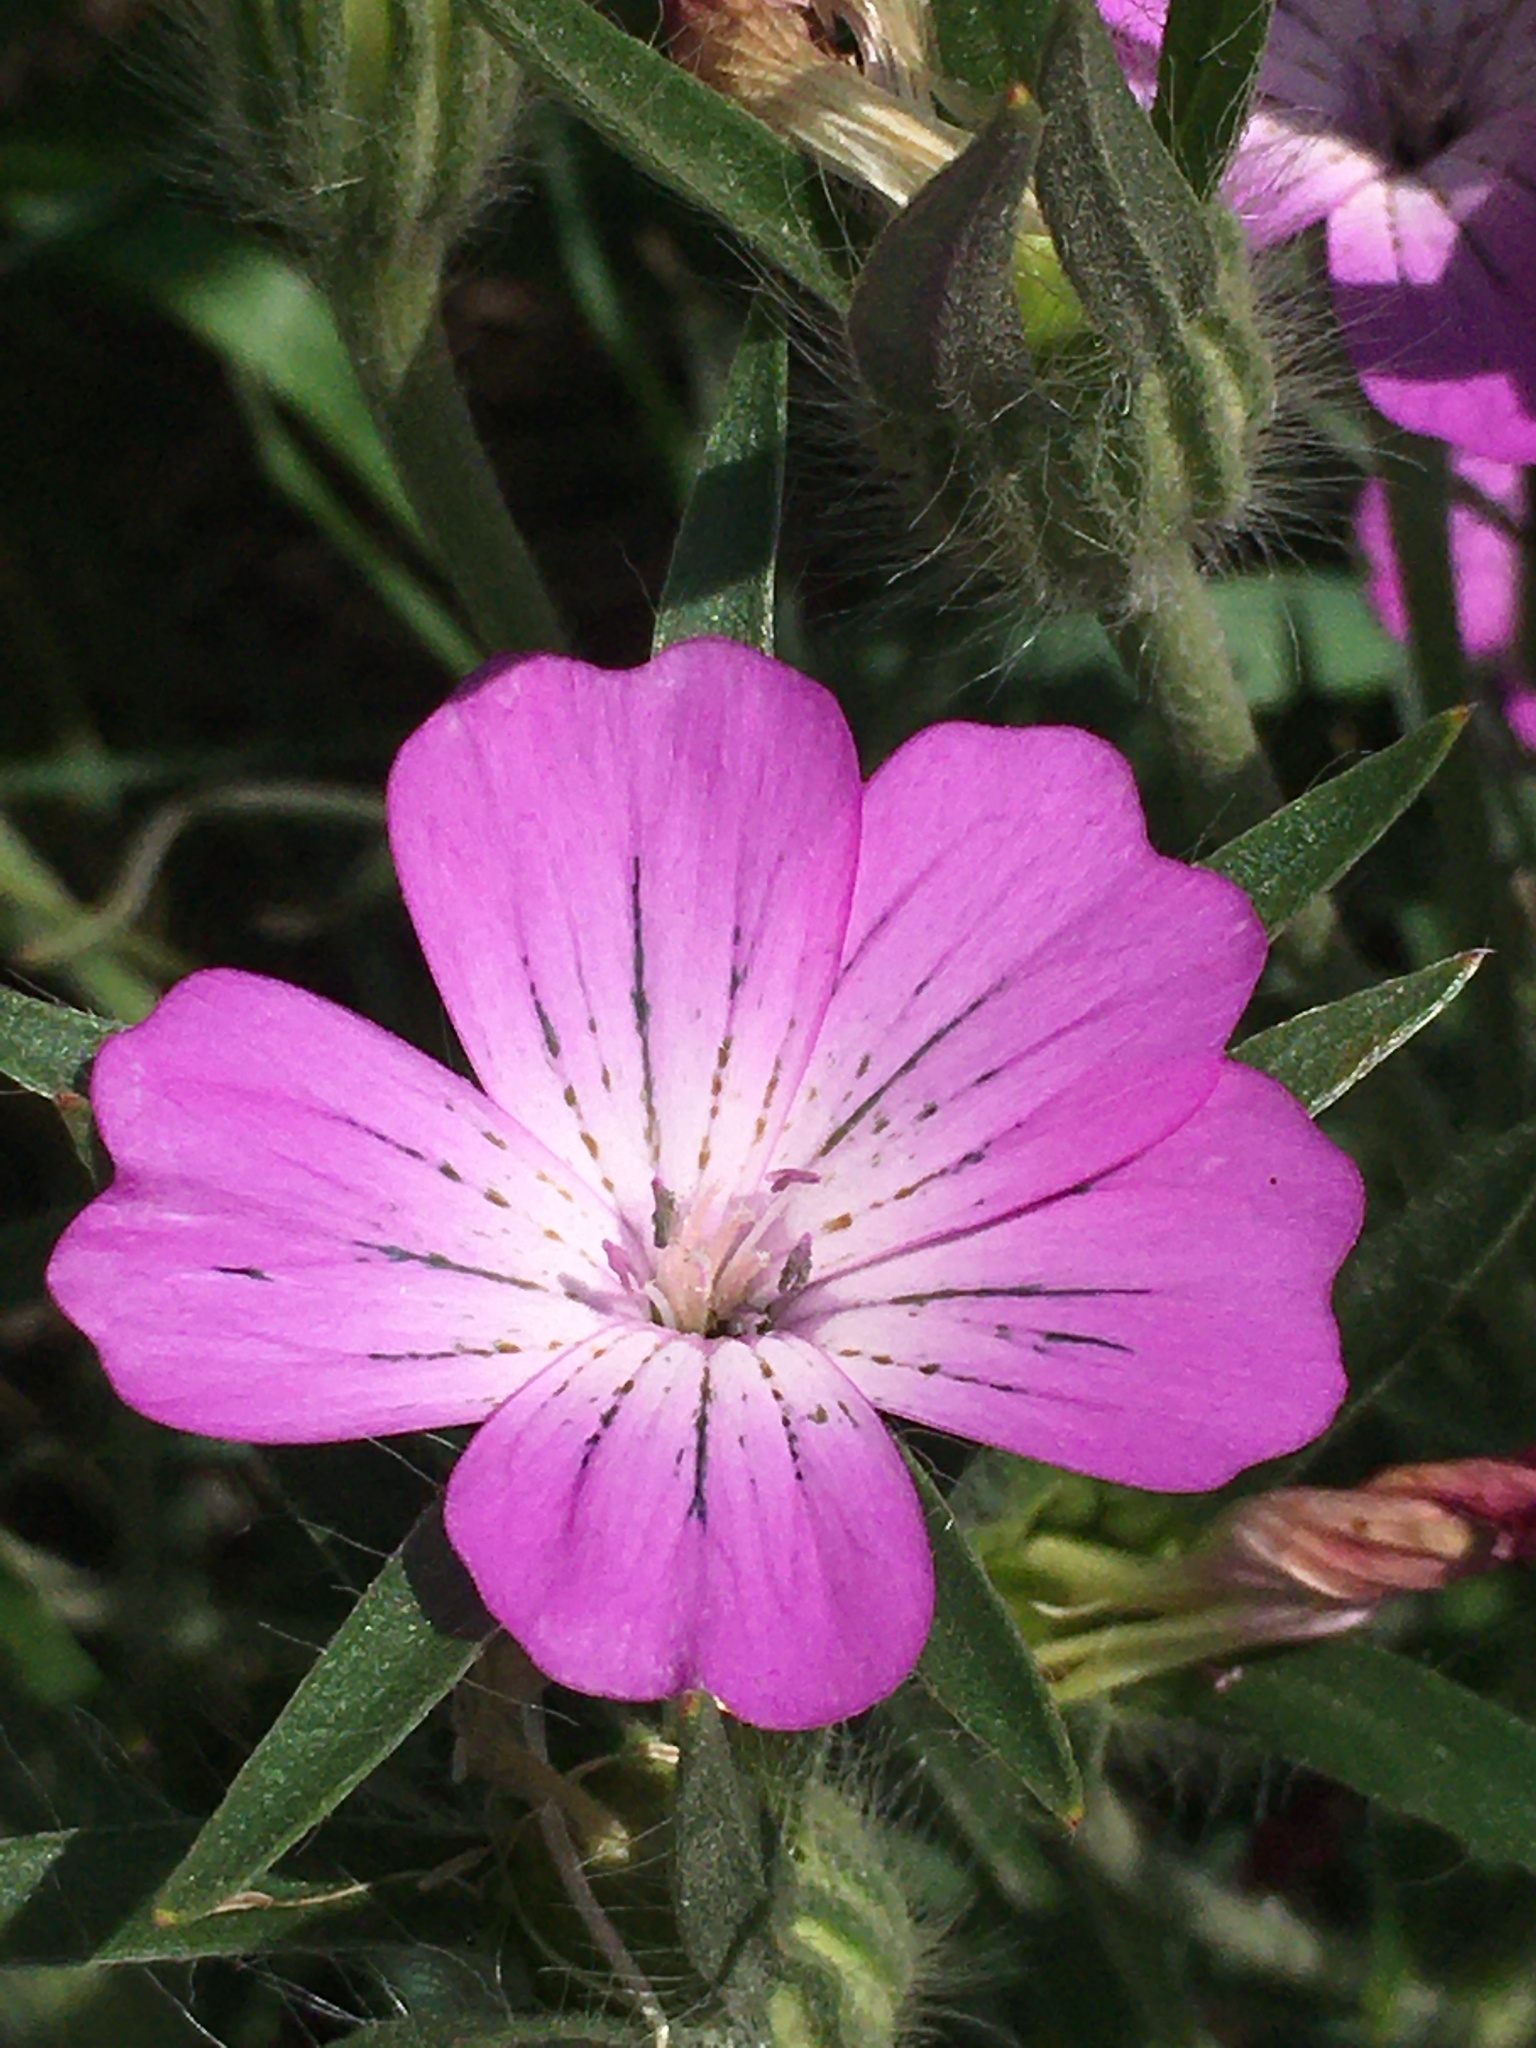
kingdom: Plantae
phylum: Tracheophyta
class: Magnoliopsida
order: Caryophyllales
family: Caryophyllaceae
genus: Agrostemma
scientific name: Agrostemma githago
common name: Common corncockle
